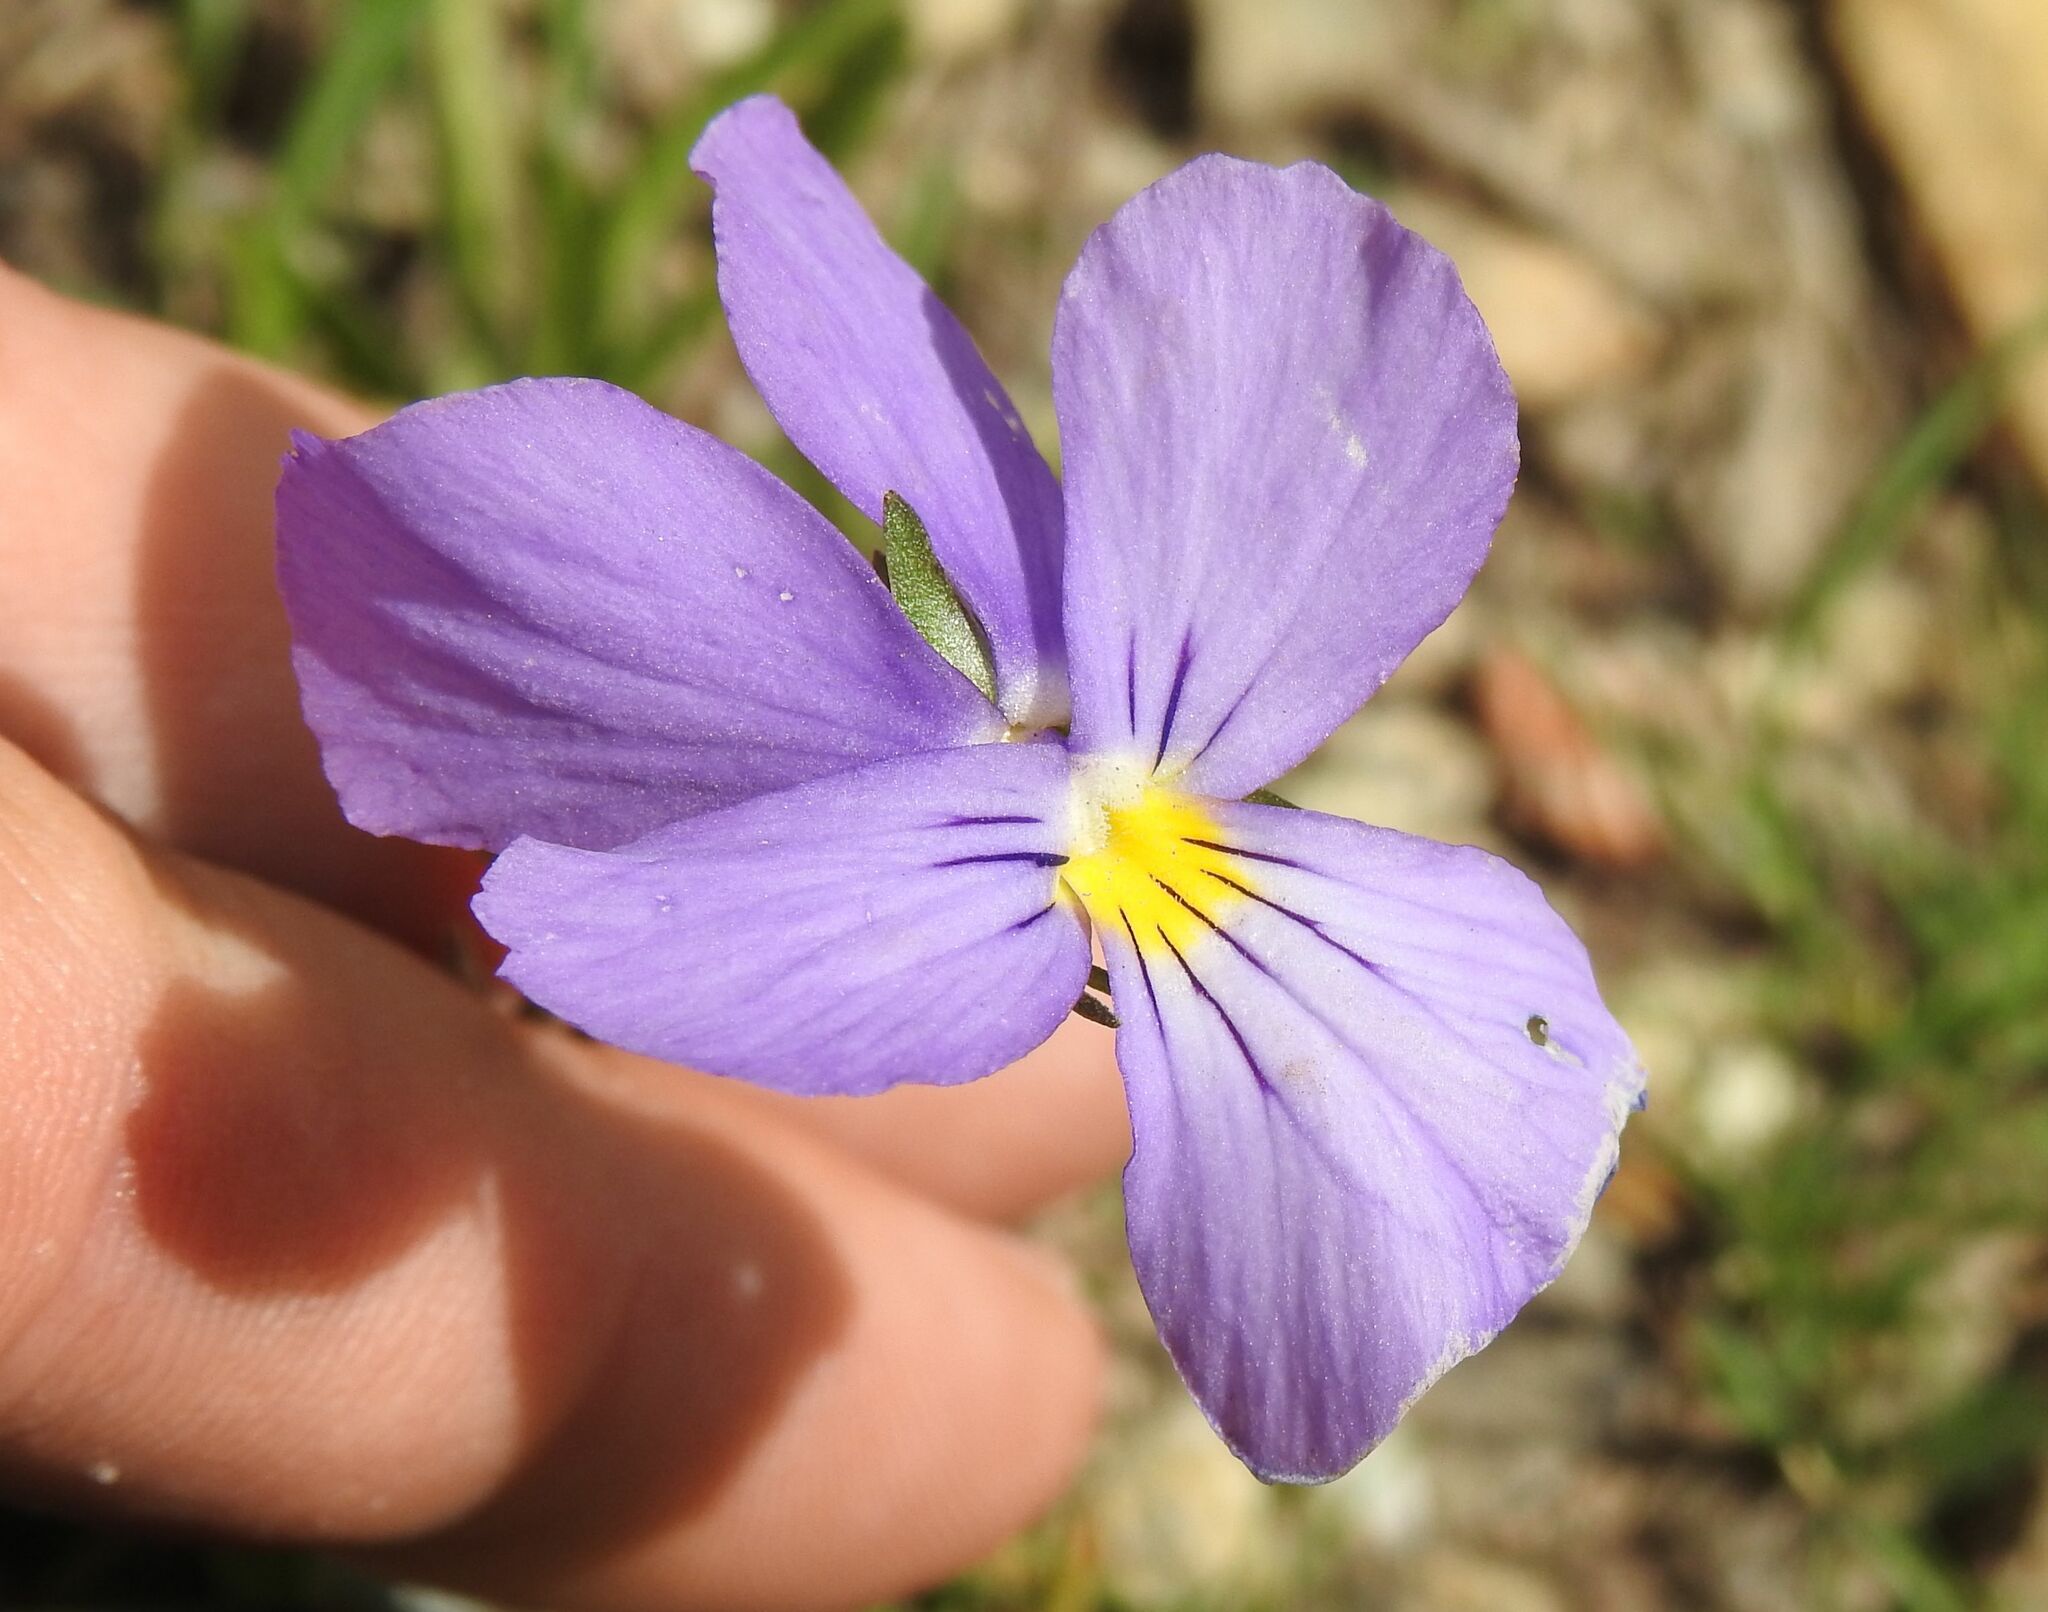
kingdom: Plantae
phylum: Tracheophyta
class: Magnoliopsida
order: Malpighiales
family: Violaceae
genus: Viola
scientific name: Viola calcarata
